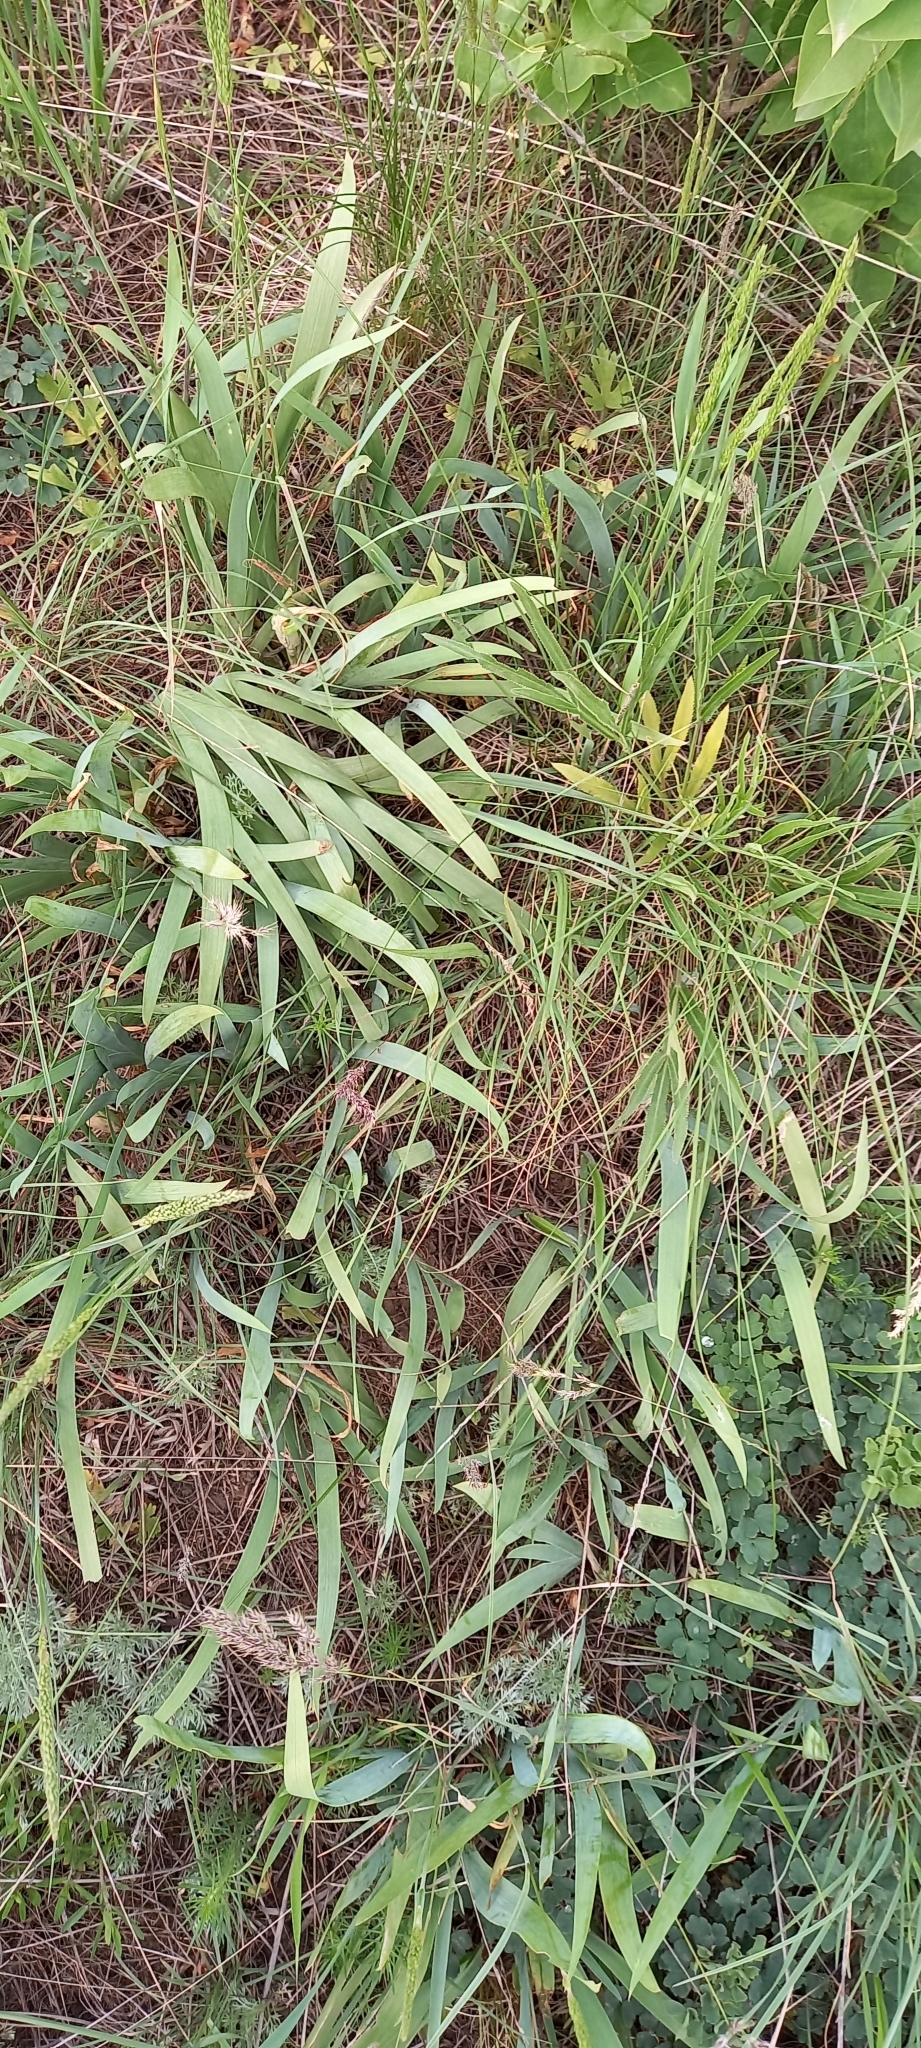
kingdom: Plantae
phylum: Tracheophyta
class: Liliopsida
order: Asparagales
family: Iridaceae
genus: Iris
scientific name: Iris pumila
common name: Dwarf iris
